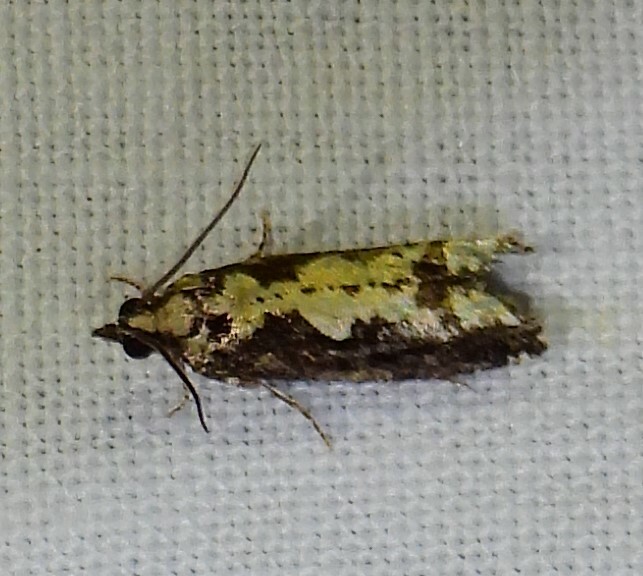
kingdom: Animalia
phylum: Arthropoda
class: Insecta
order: Lepidoptera
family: Tortricidae
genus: Chimoptesis
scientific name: Chimoptesis pennsylvaniana
